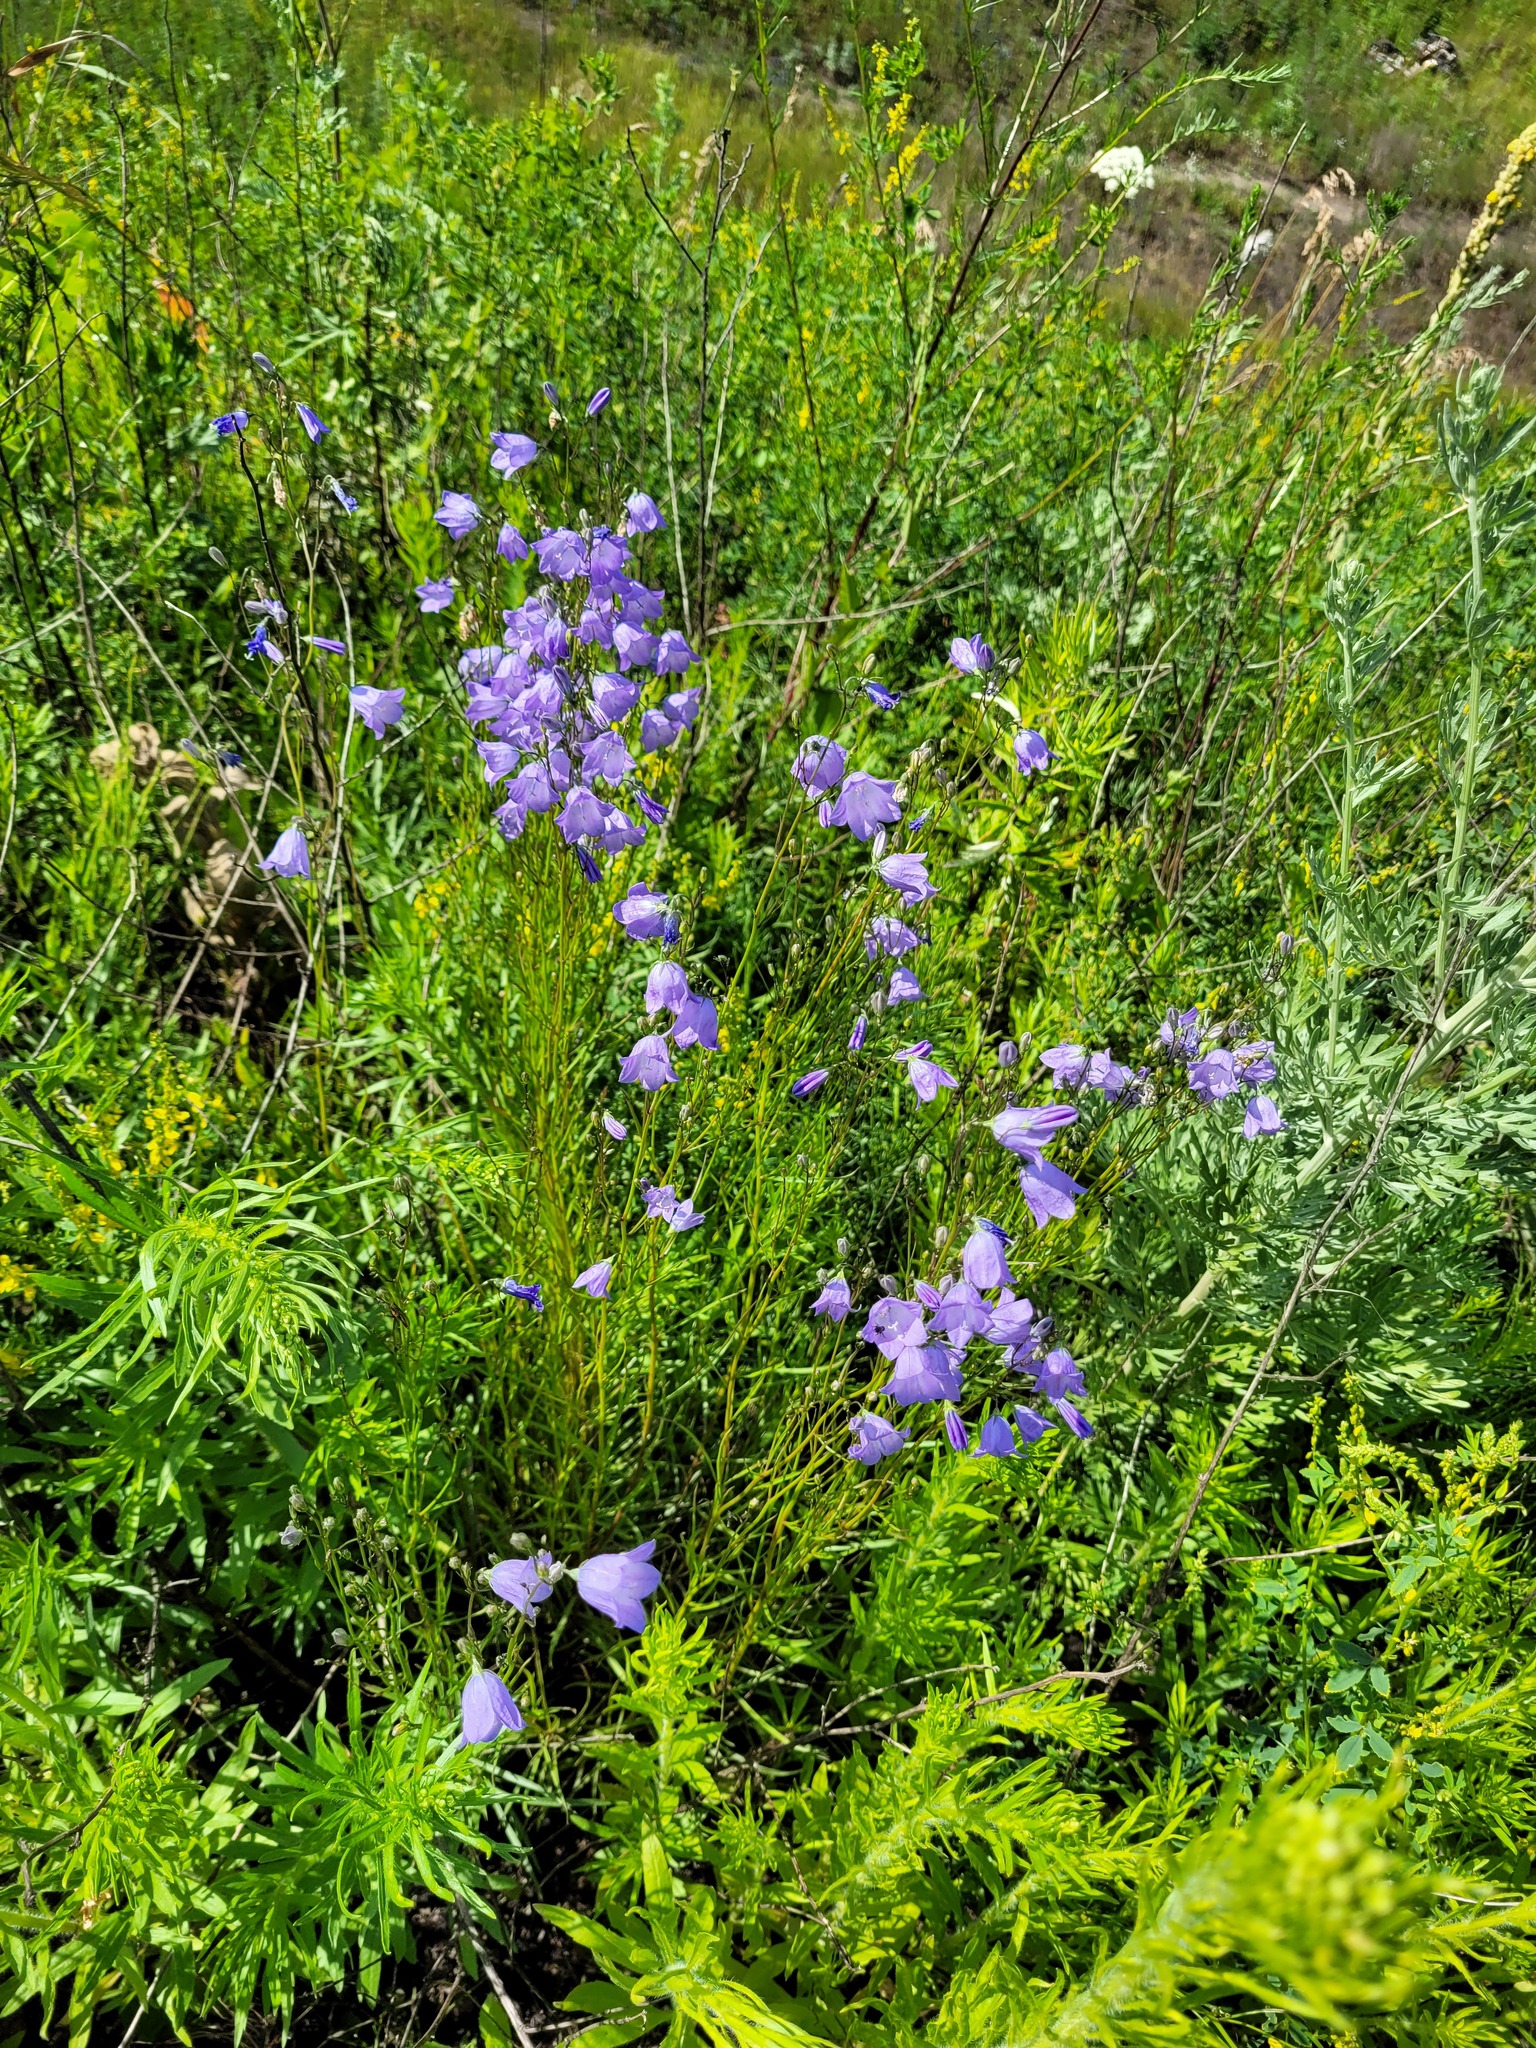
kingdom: Plantae
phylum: Tracheophyta
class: Magnoliopsida
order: Asterales
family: Campanulaceae
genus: Campanula
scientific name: Campanula rotundifolia
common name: Harebell
